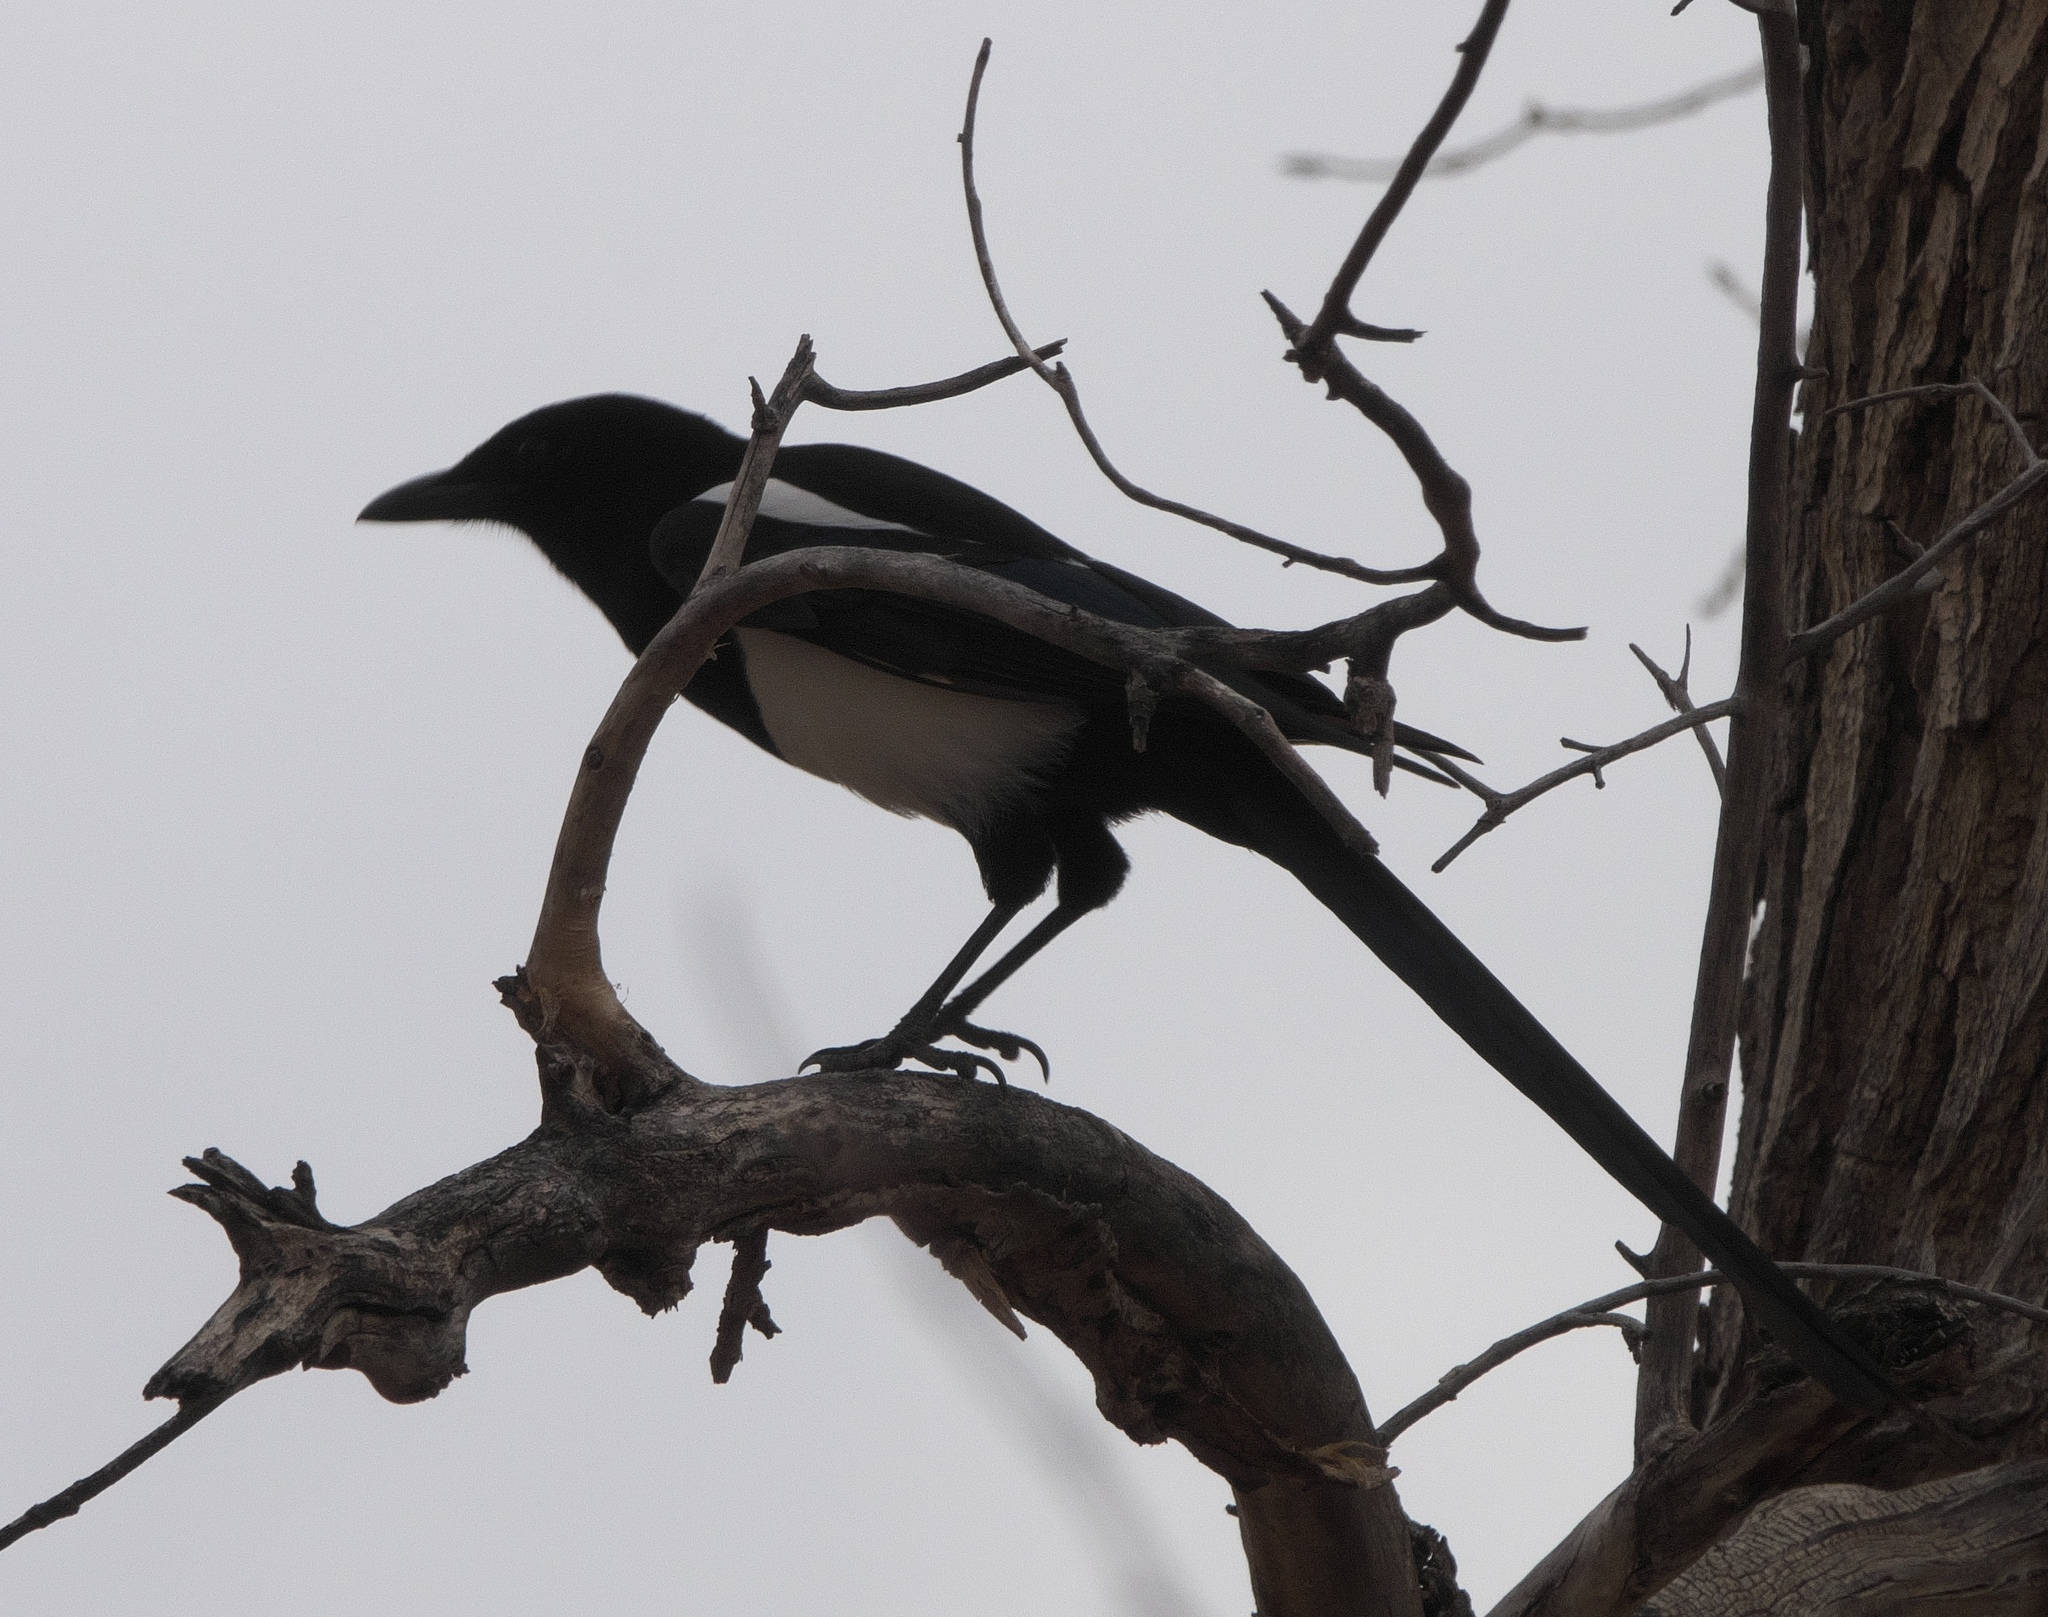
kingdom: Animalia
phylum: Chordata
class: Aves
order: Passeriformes
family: Corvidae
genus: Pica
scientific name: Pica hudsonia
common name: Black-billed magpie
